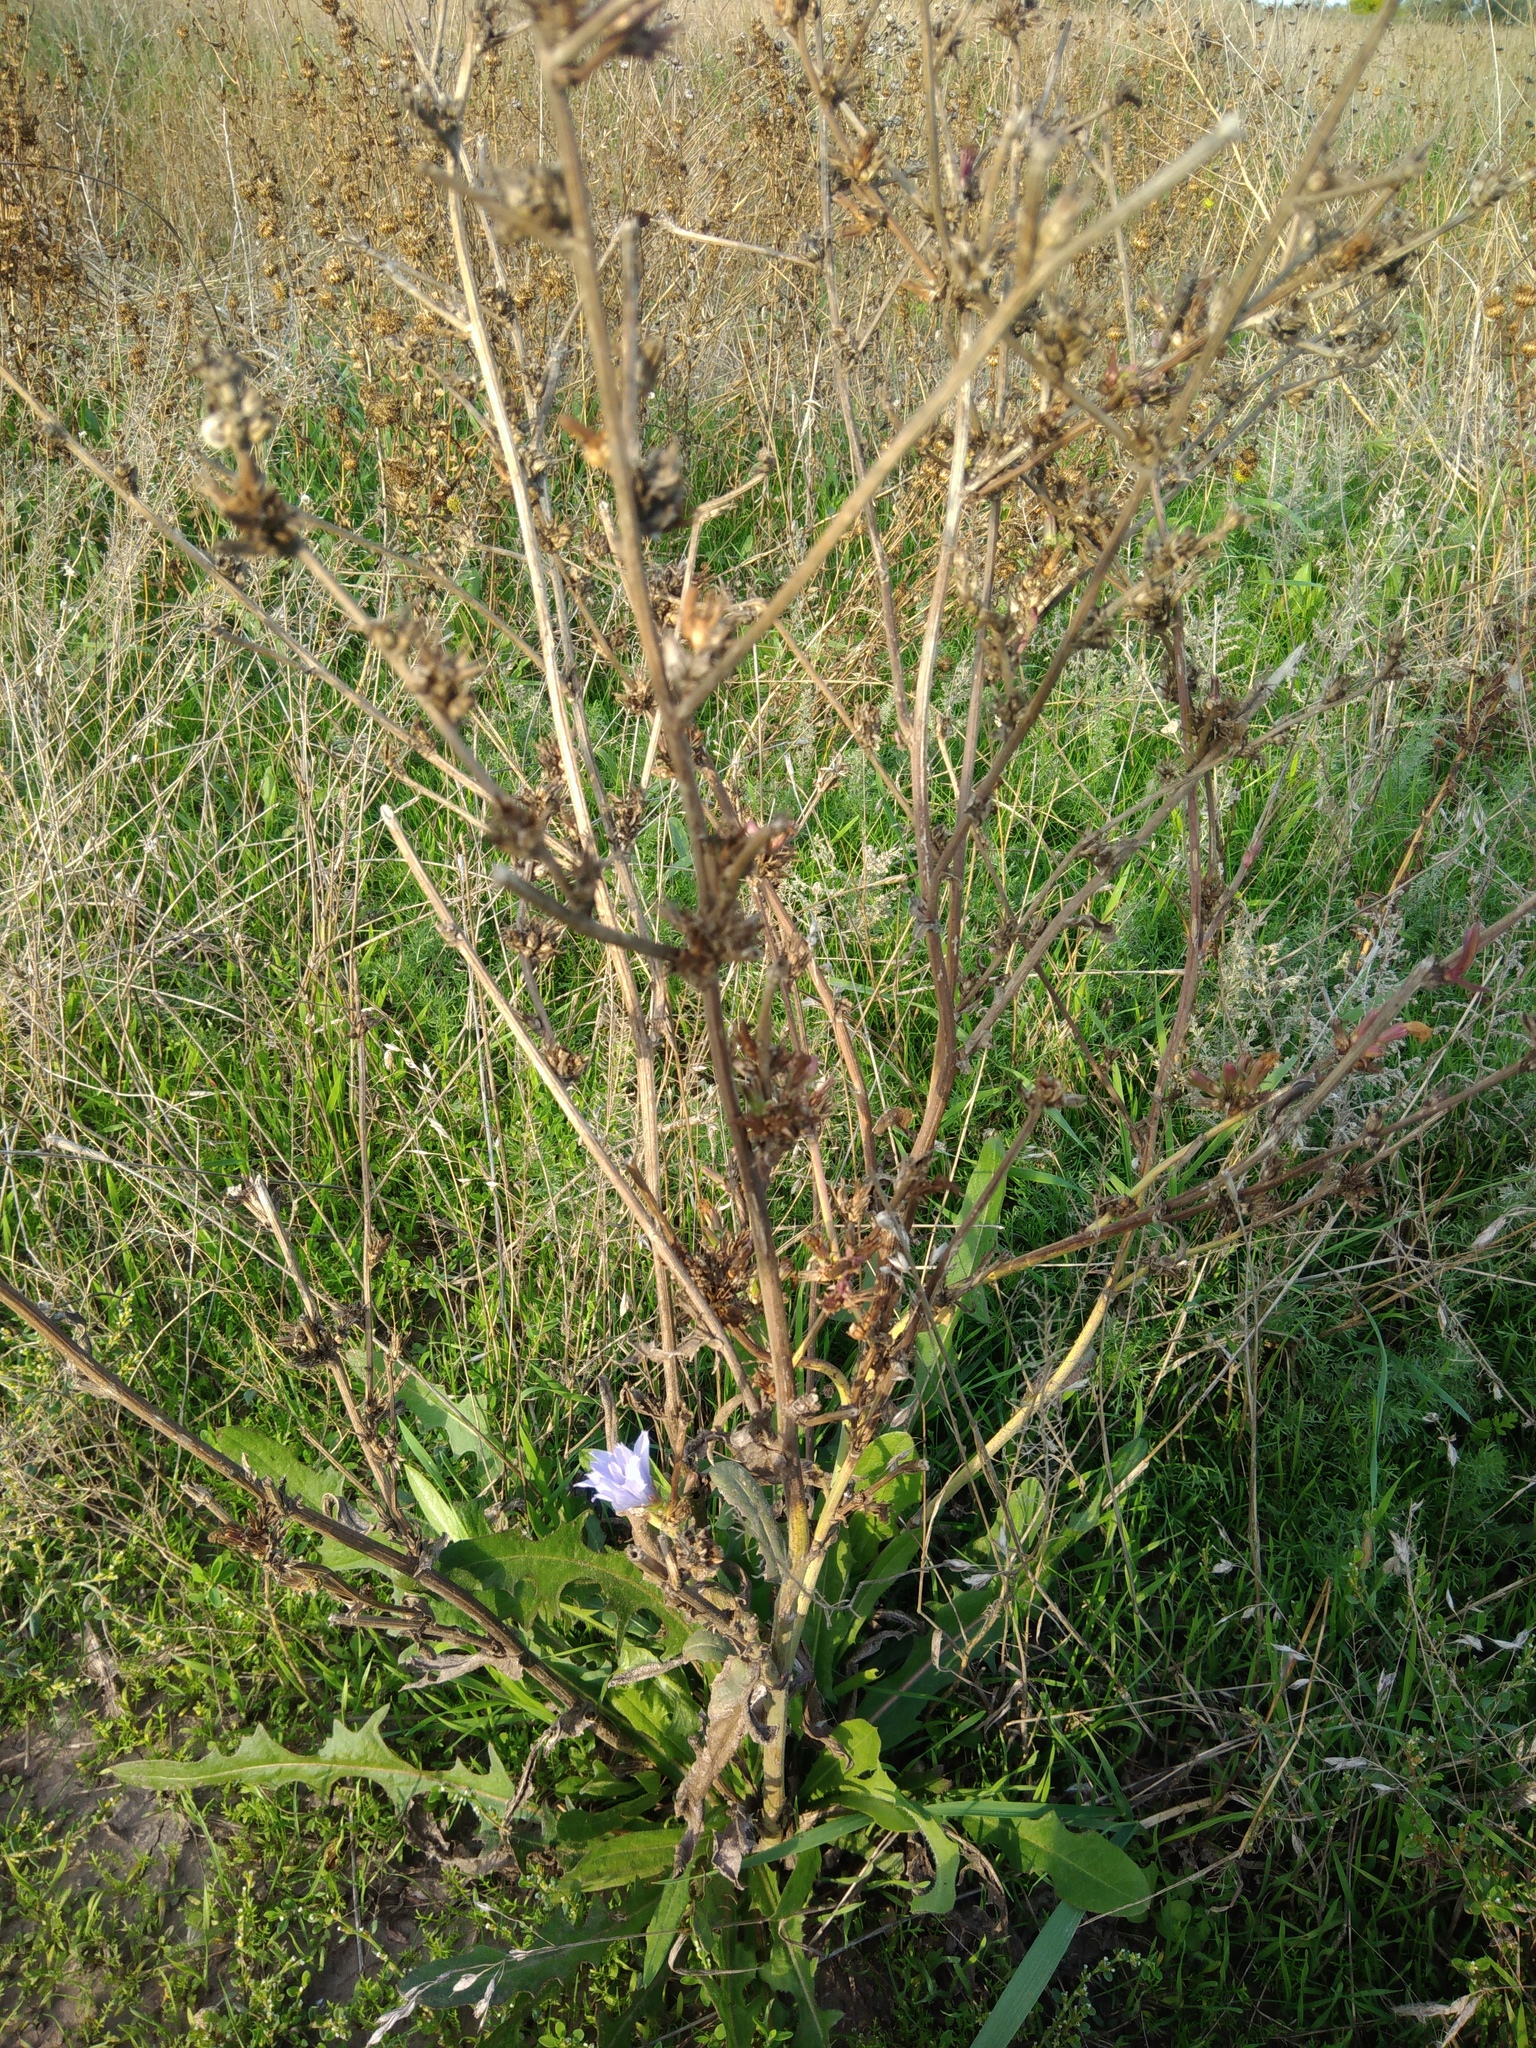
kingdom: Plantae
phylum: Tracheophyta
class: Magnoliopsida
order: Asterales
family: Asteraceae
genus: Cichorium
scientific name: Cichorium intybus
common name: Chicory
